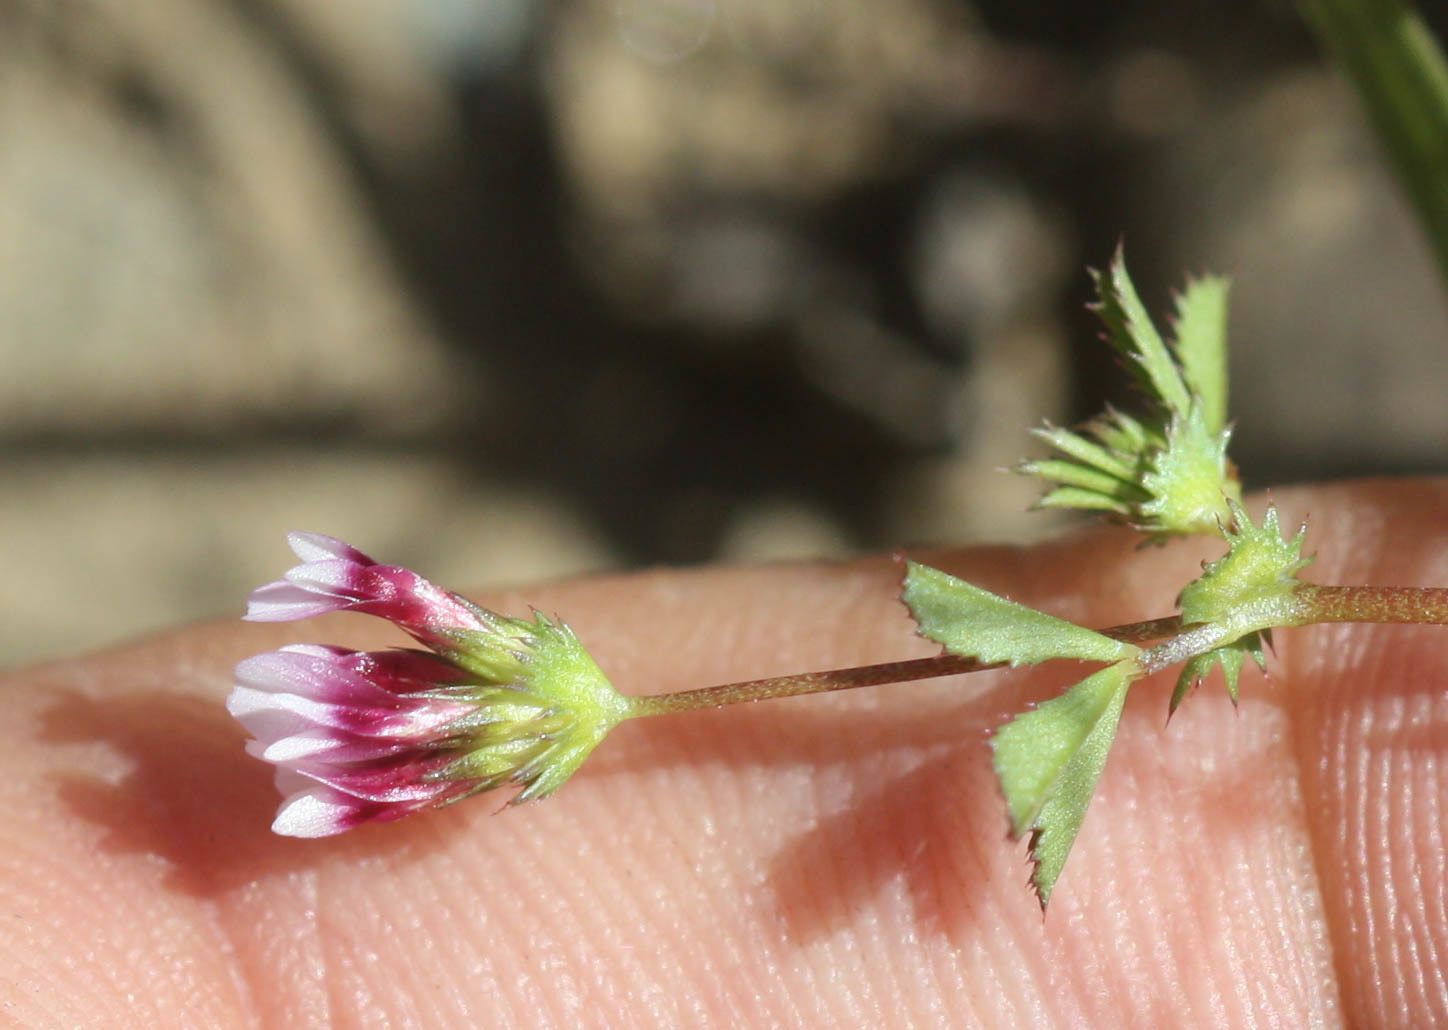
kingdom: Plantae
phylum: Tracheophyta
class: Magnoliopsida
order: Fabales
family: Fabaceae
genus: Trifolium
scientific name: Trifolium variegatum
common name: Whitetip clover
